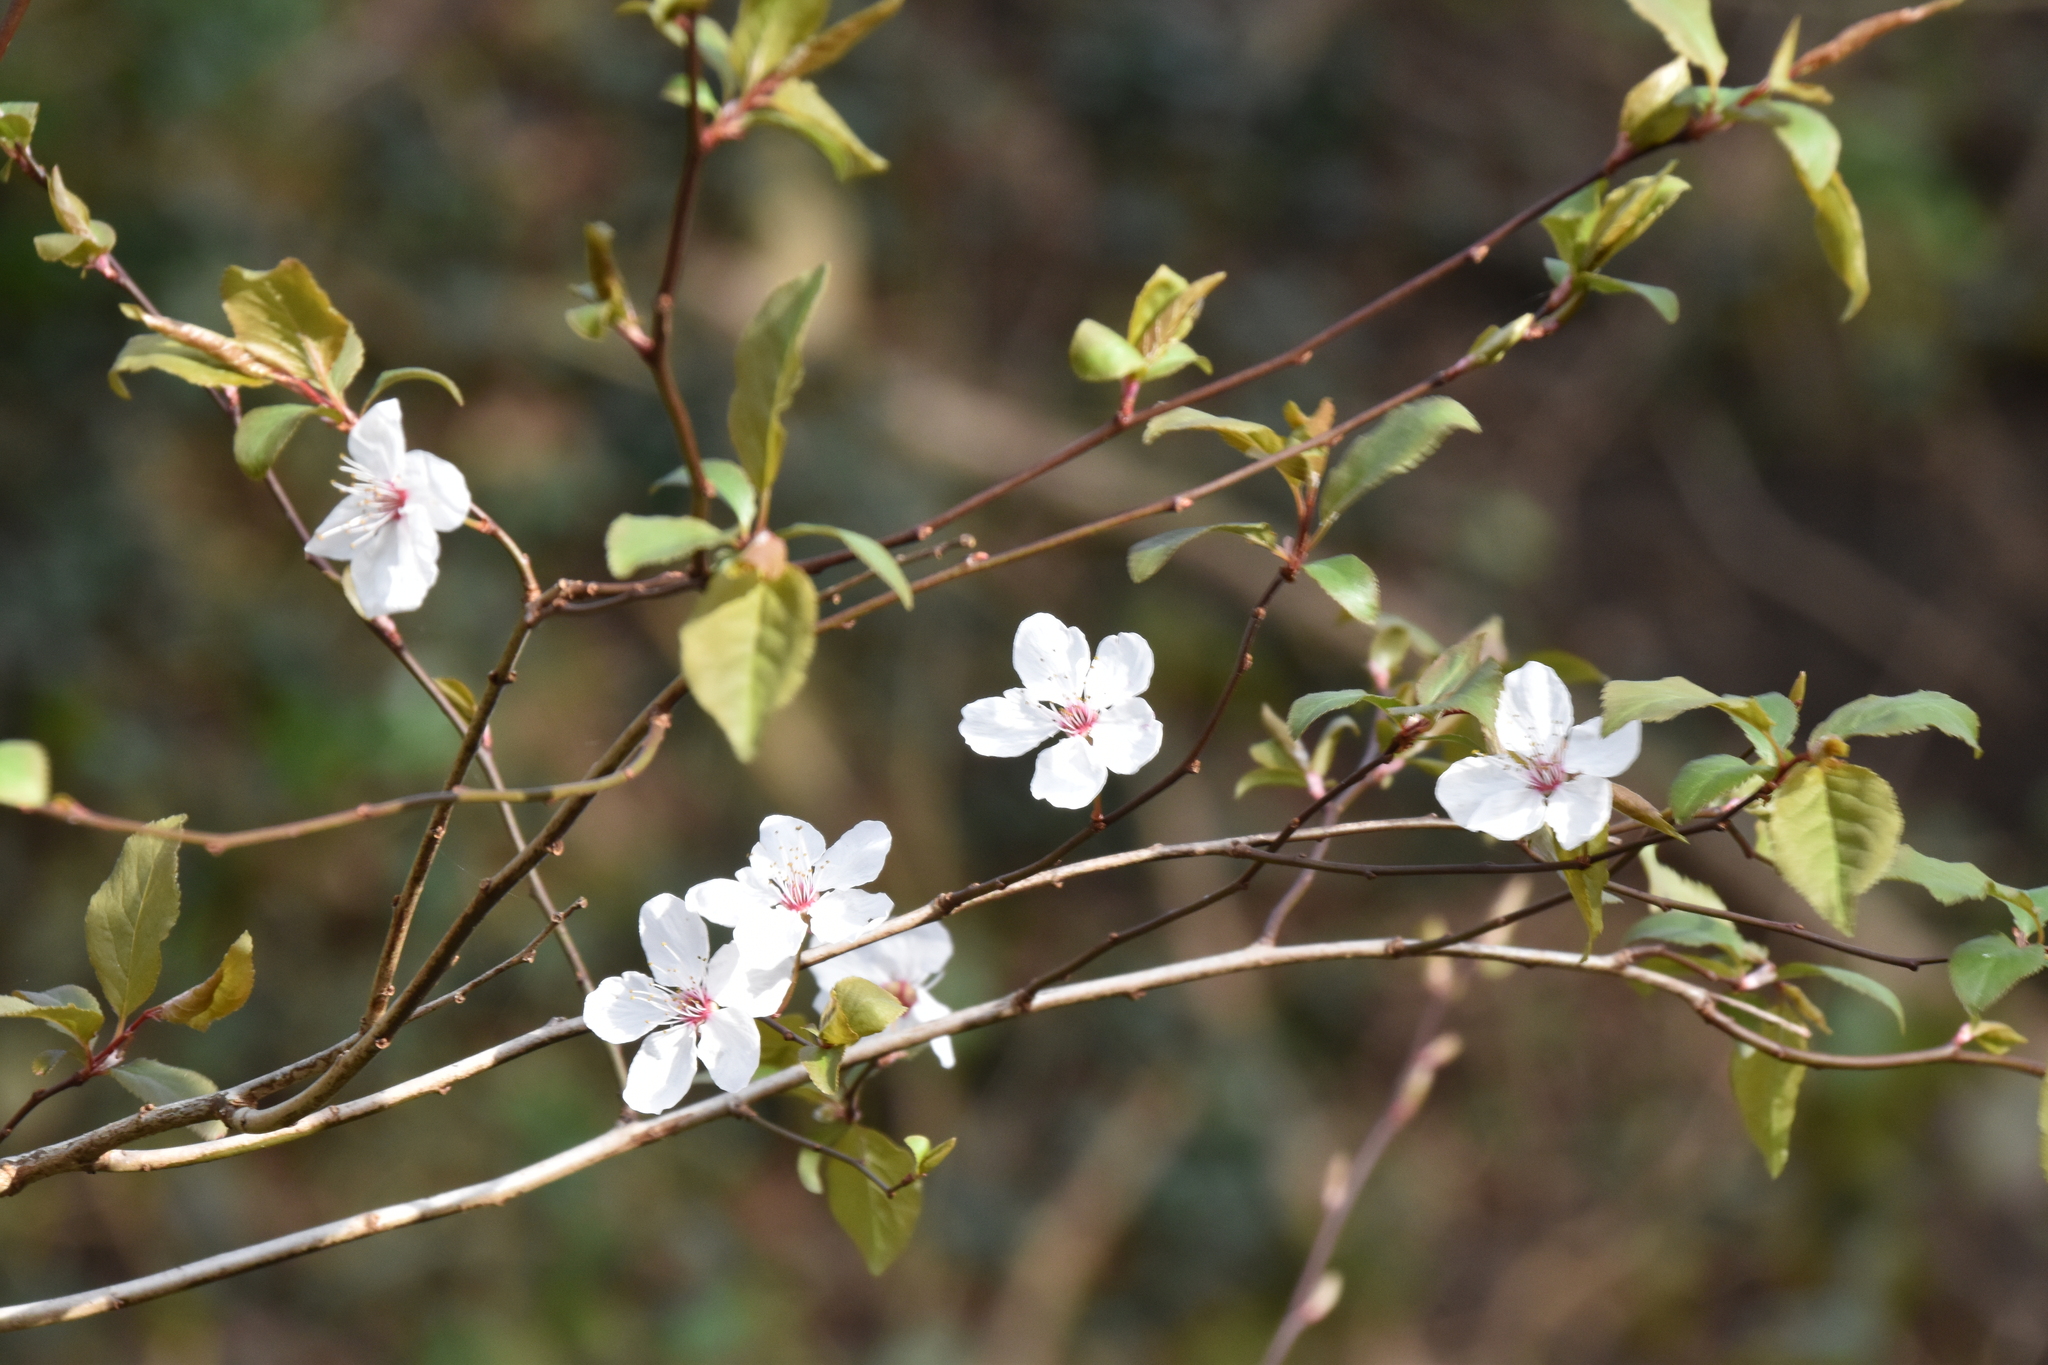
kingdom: Plantae
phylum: Tracheophyta
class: Magnoliopsida
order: Rosales
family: Rosaceae
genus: Prunus
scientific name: Prunus cerasifera
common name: Cherry plum
